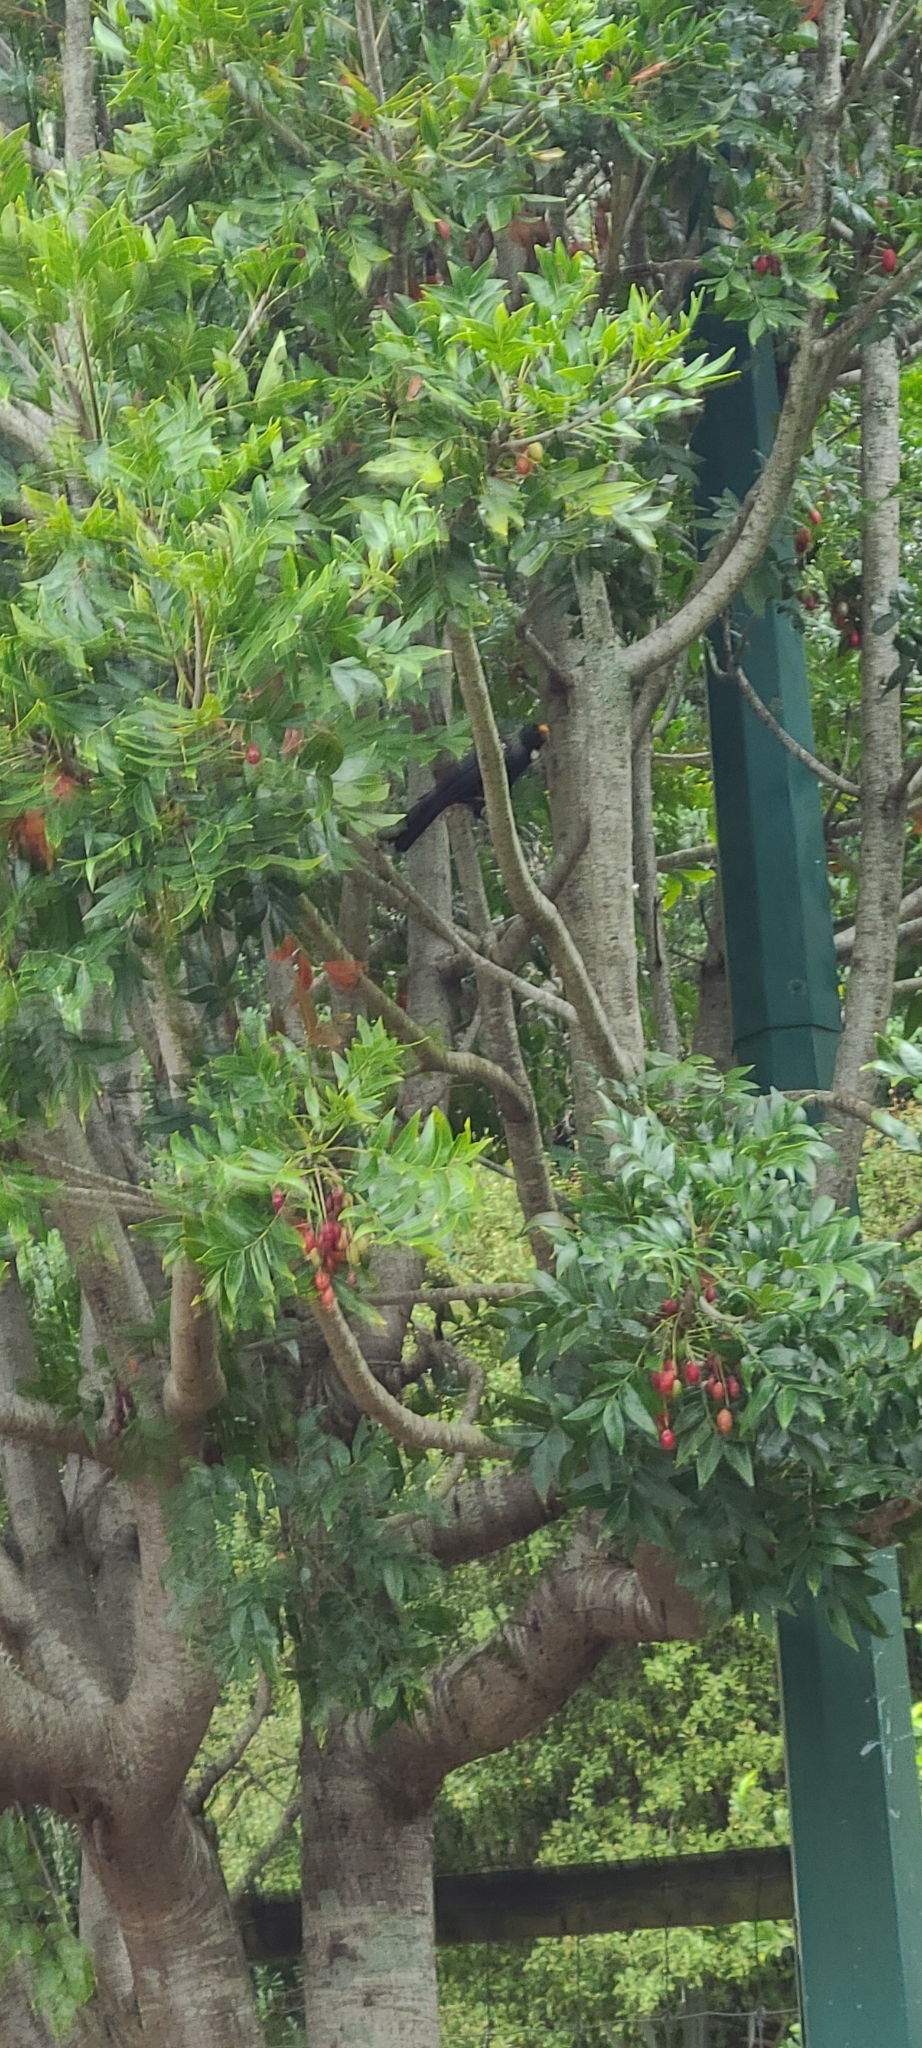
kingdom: Animalia
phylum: Chordata
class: Aves
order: Passeriformes
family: Meliphagidae
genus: Prosthemadera
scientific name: Prosthemadera novaeseelandiae
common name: Tui
